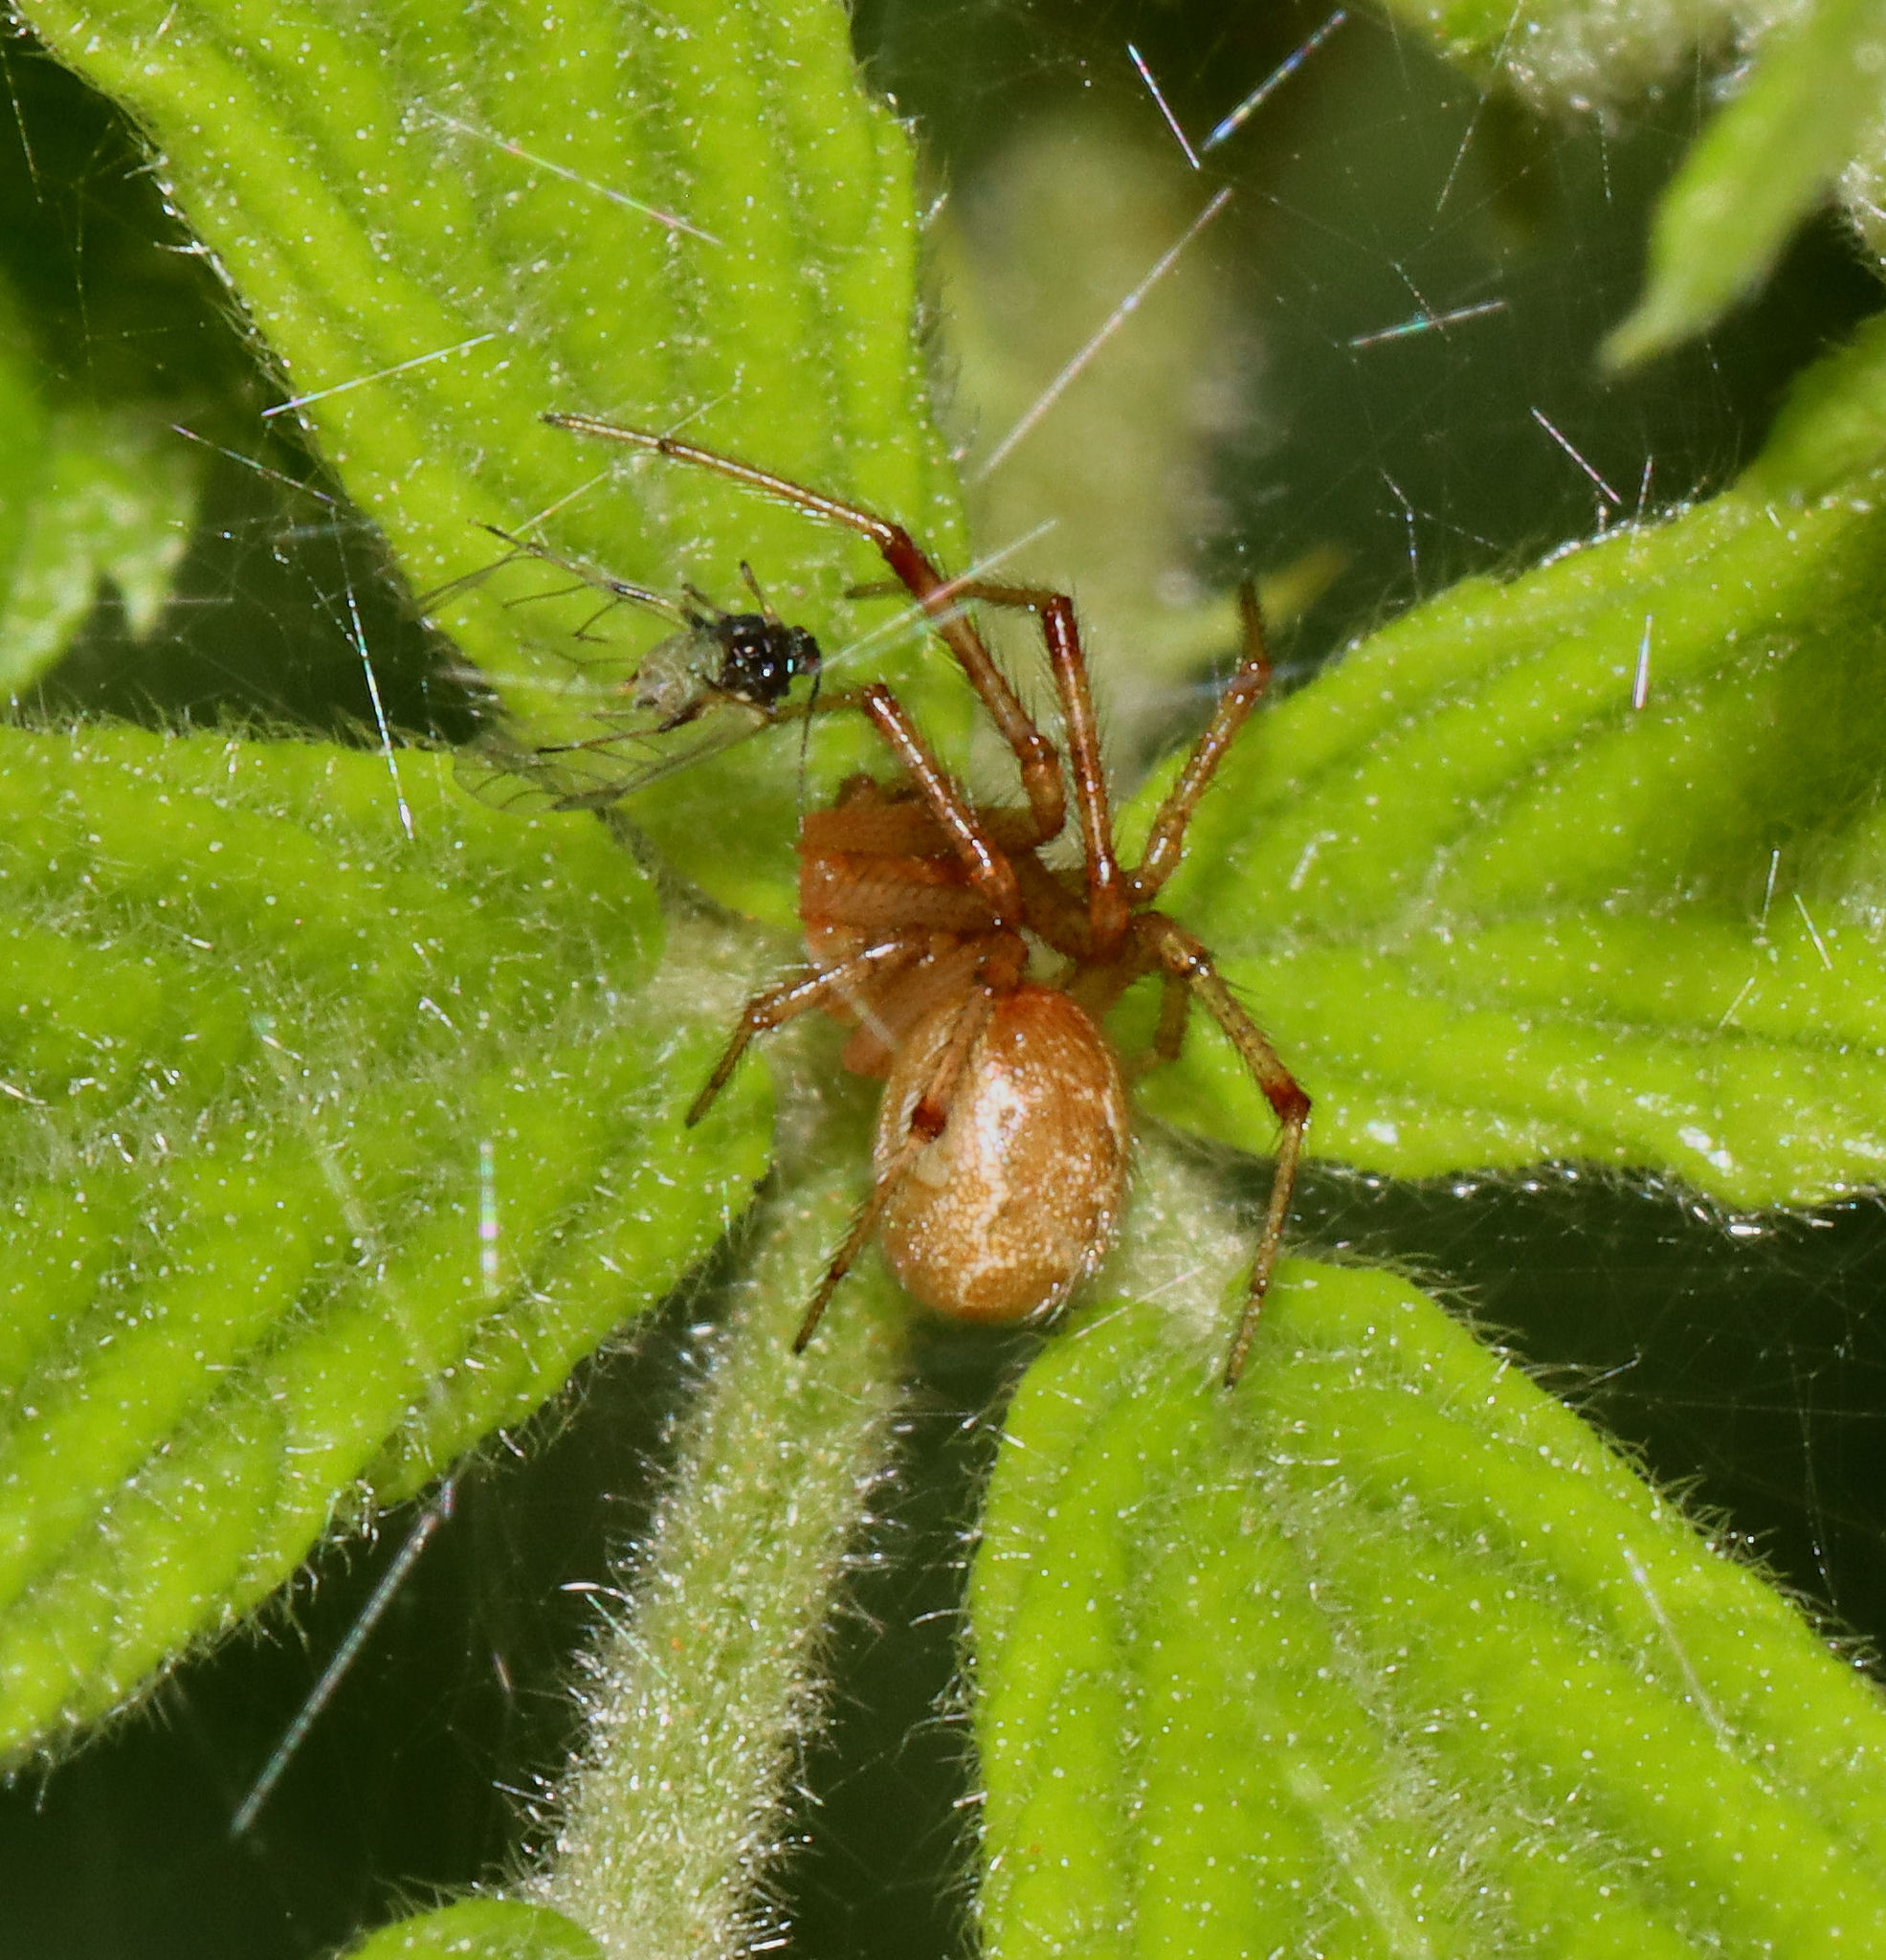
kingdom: Animalia
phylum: Arthropoda
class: Arachnida
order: Araneae
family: Theridiidae
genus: Anelosimus
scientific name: Anelosimus studiosus
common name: Cobweb spiders
